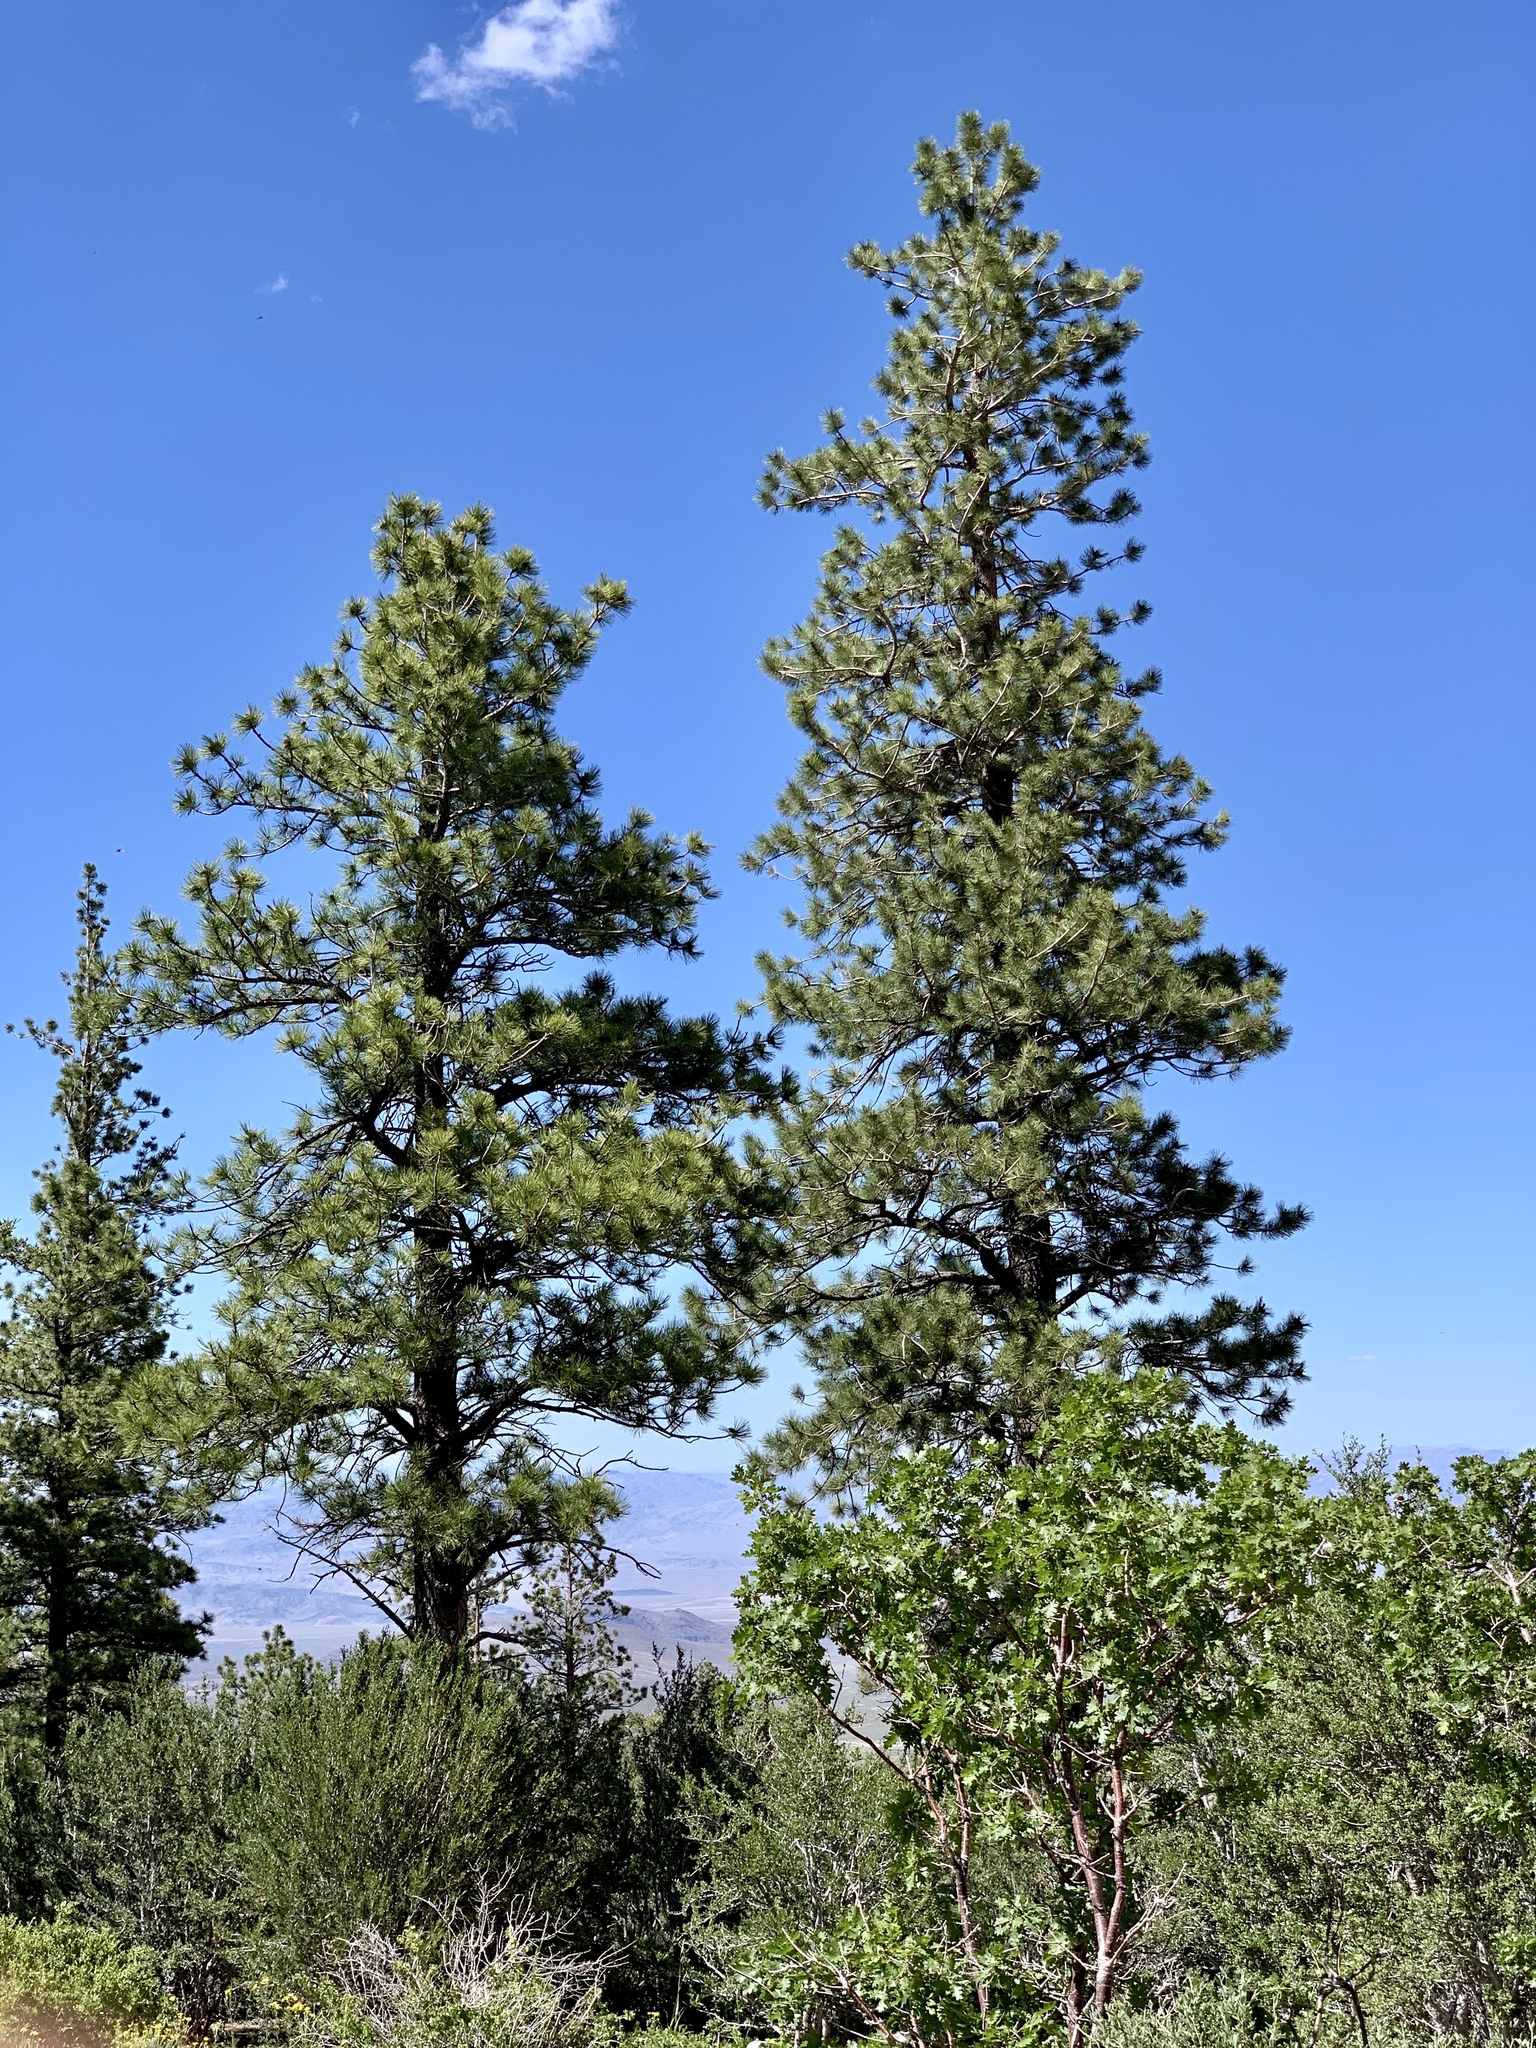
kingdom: Plantae
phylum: Tracheophyta
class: Pinopsida
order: Pinales
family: Pinaceae
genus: Pinus
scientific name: Pinus ponderosa
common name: Western yellow-pine
